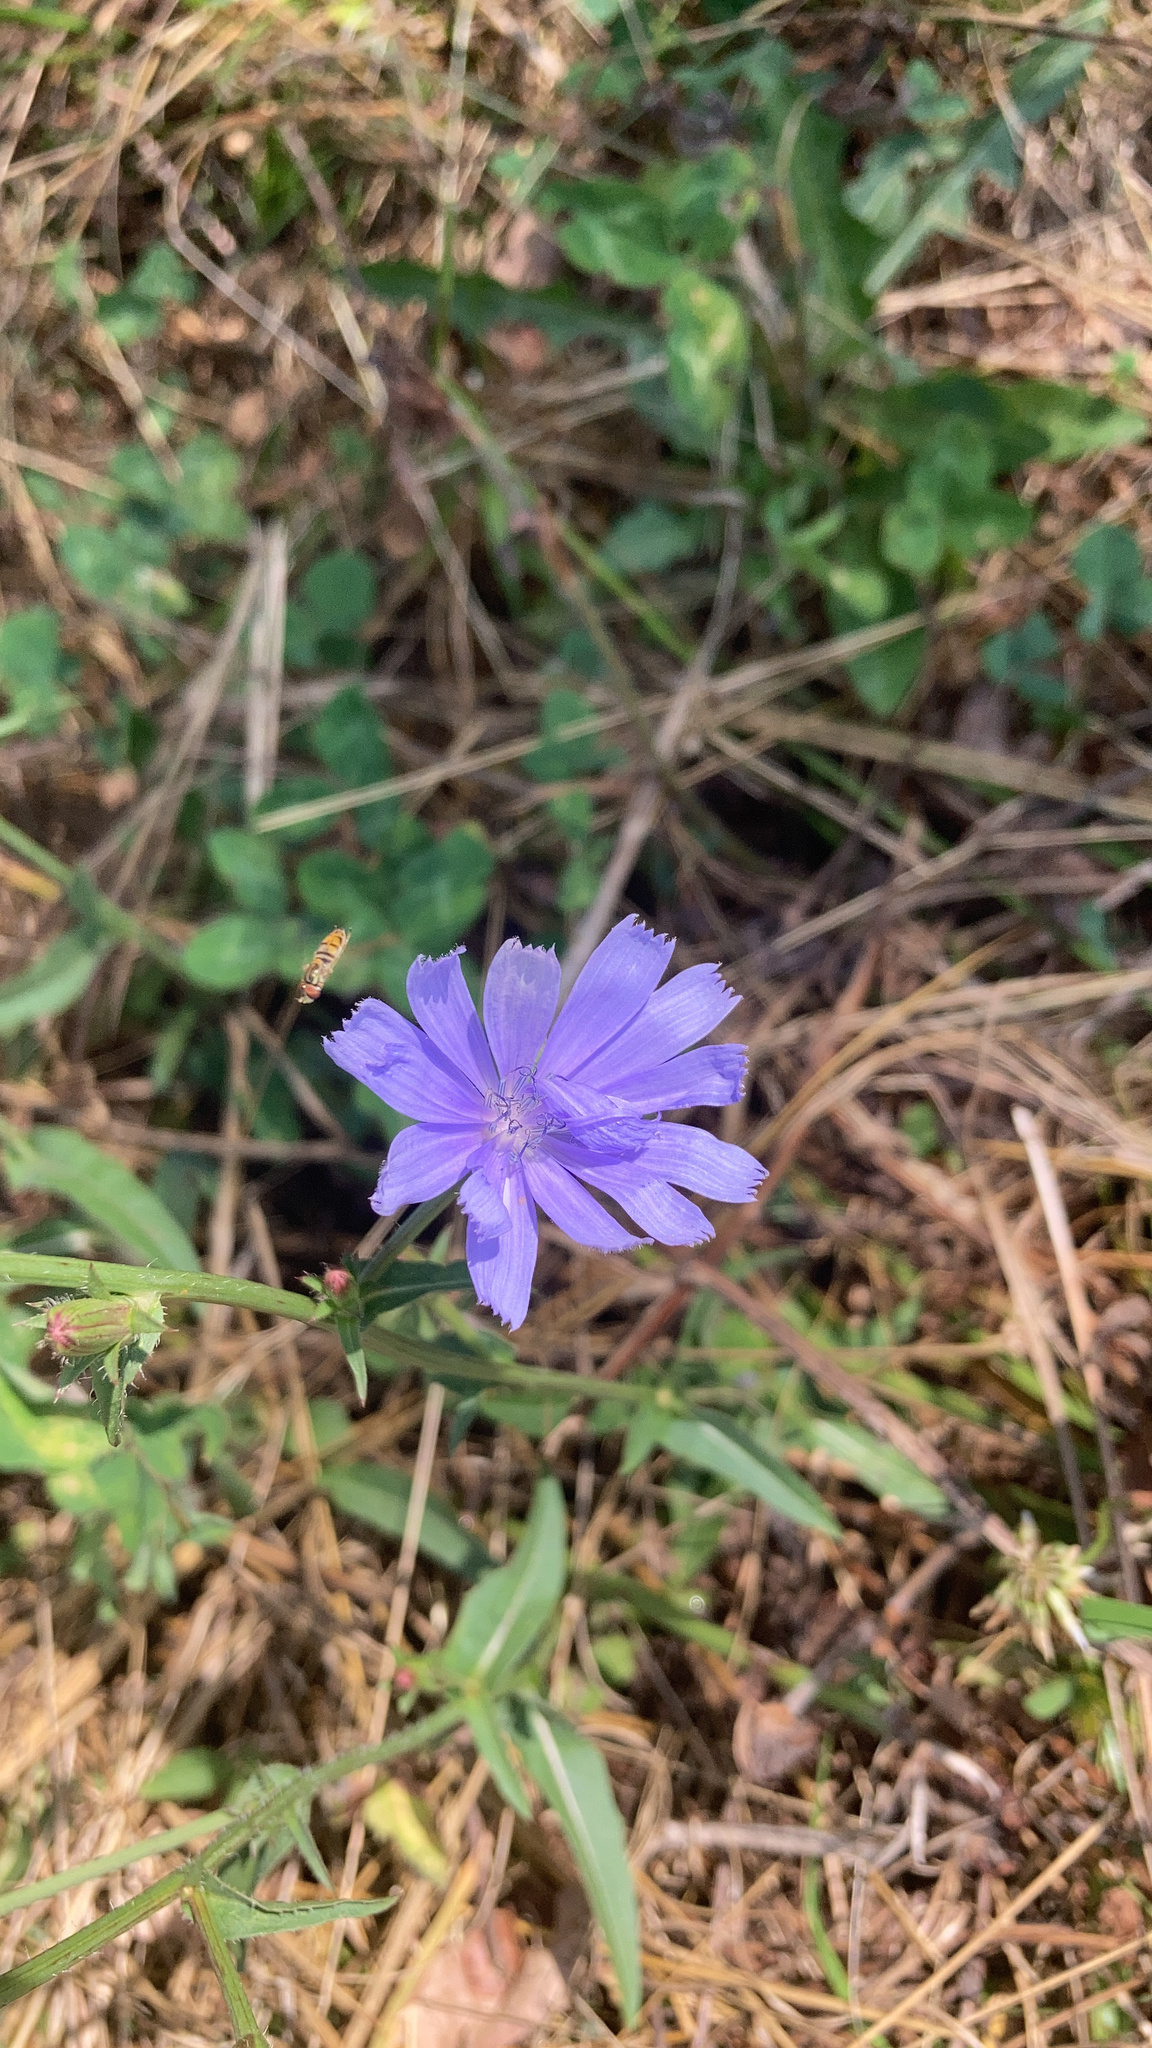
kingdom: Plantae
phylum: Tracheophyta
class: Magnoliopsida
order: Asterales
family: Asteraceae
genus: Cichorium
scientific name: Cichorium intybus
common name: Chicory
